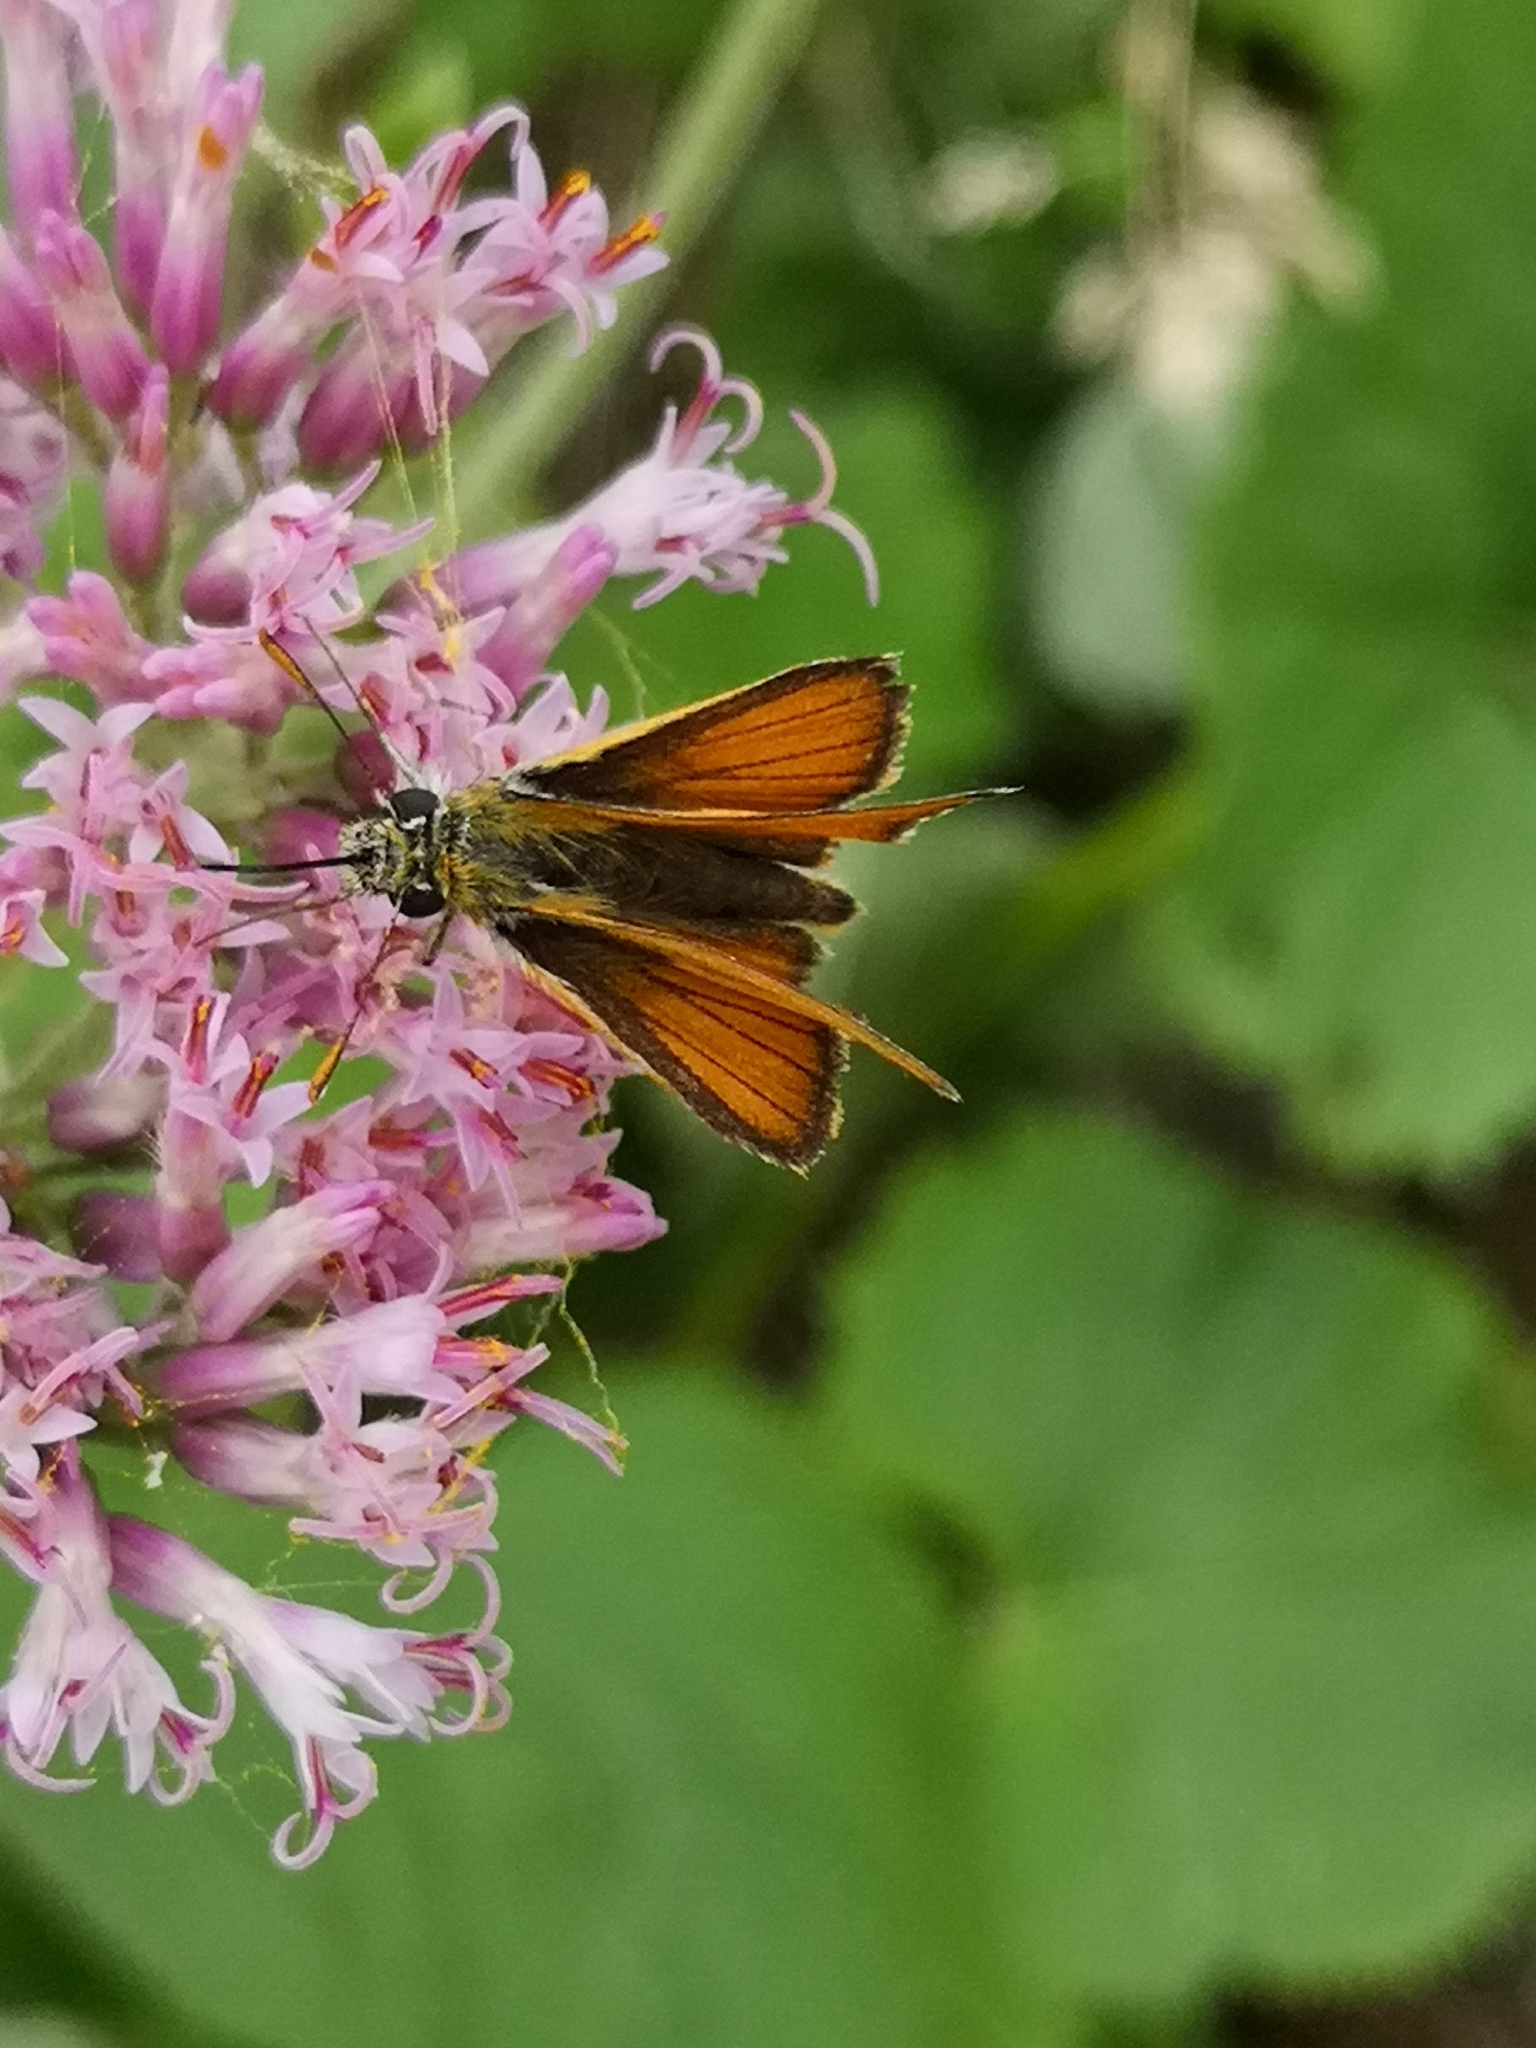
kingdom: Animalia
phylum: Arthropoda
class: Insecta
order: Lepidoptera
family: Hesperiidae
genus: Thymelicus
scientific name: Thymelicus sylvestris
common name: Small skipper
